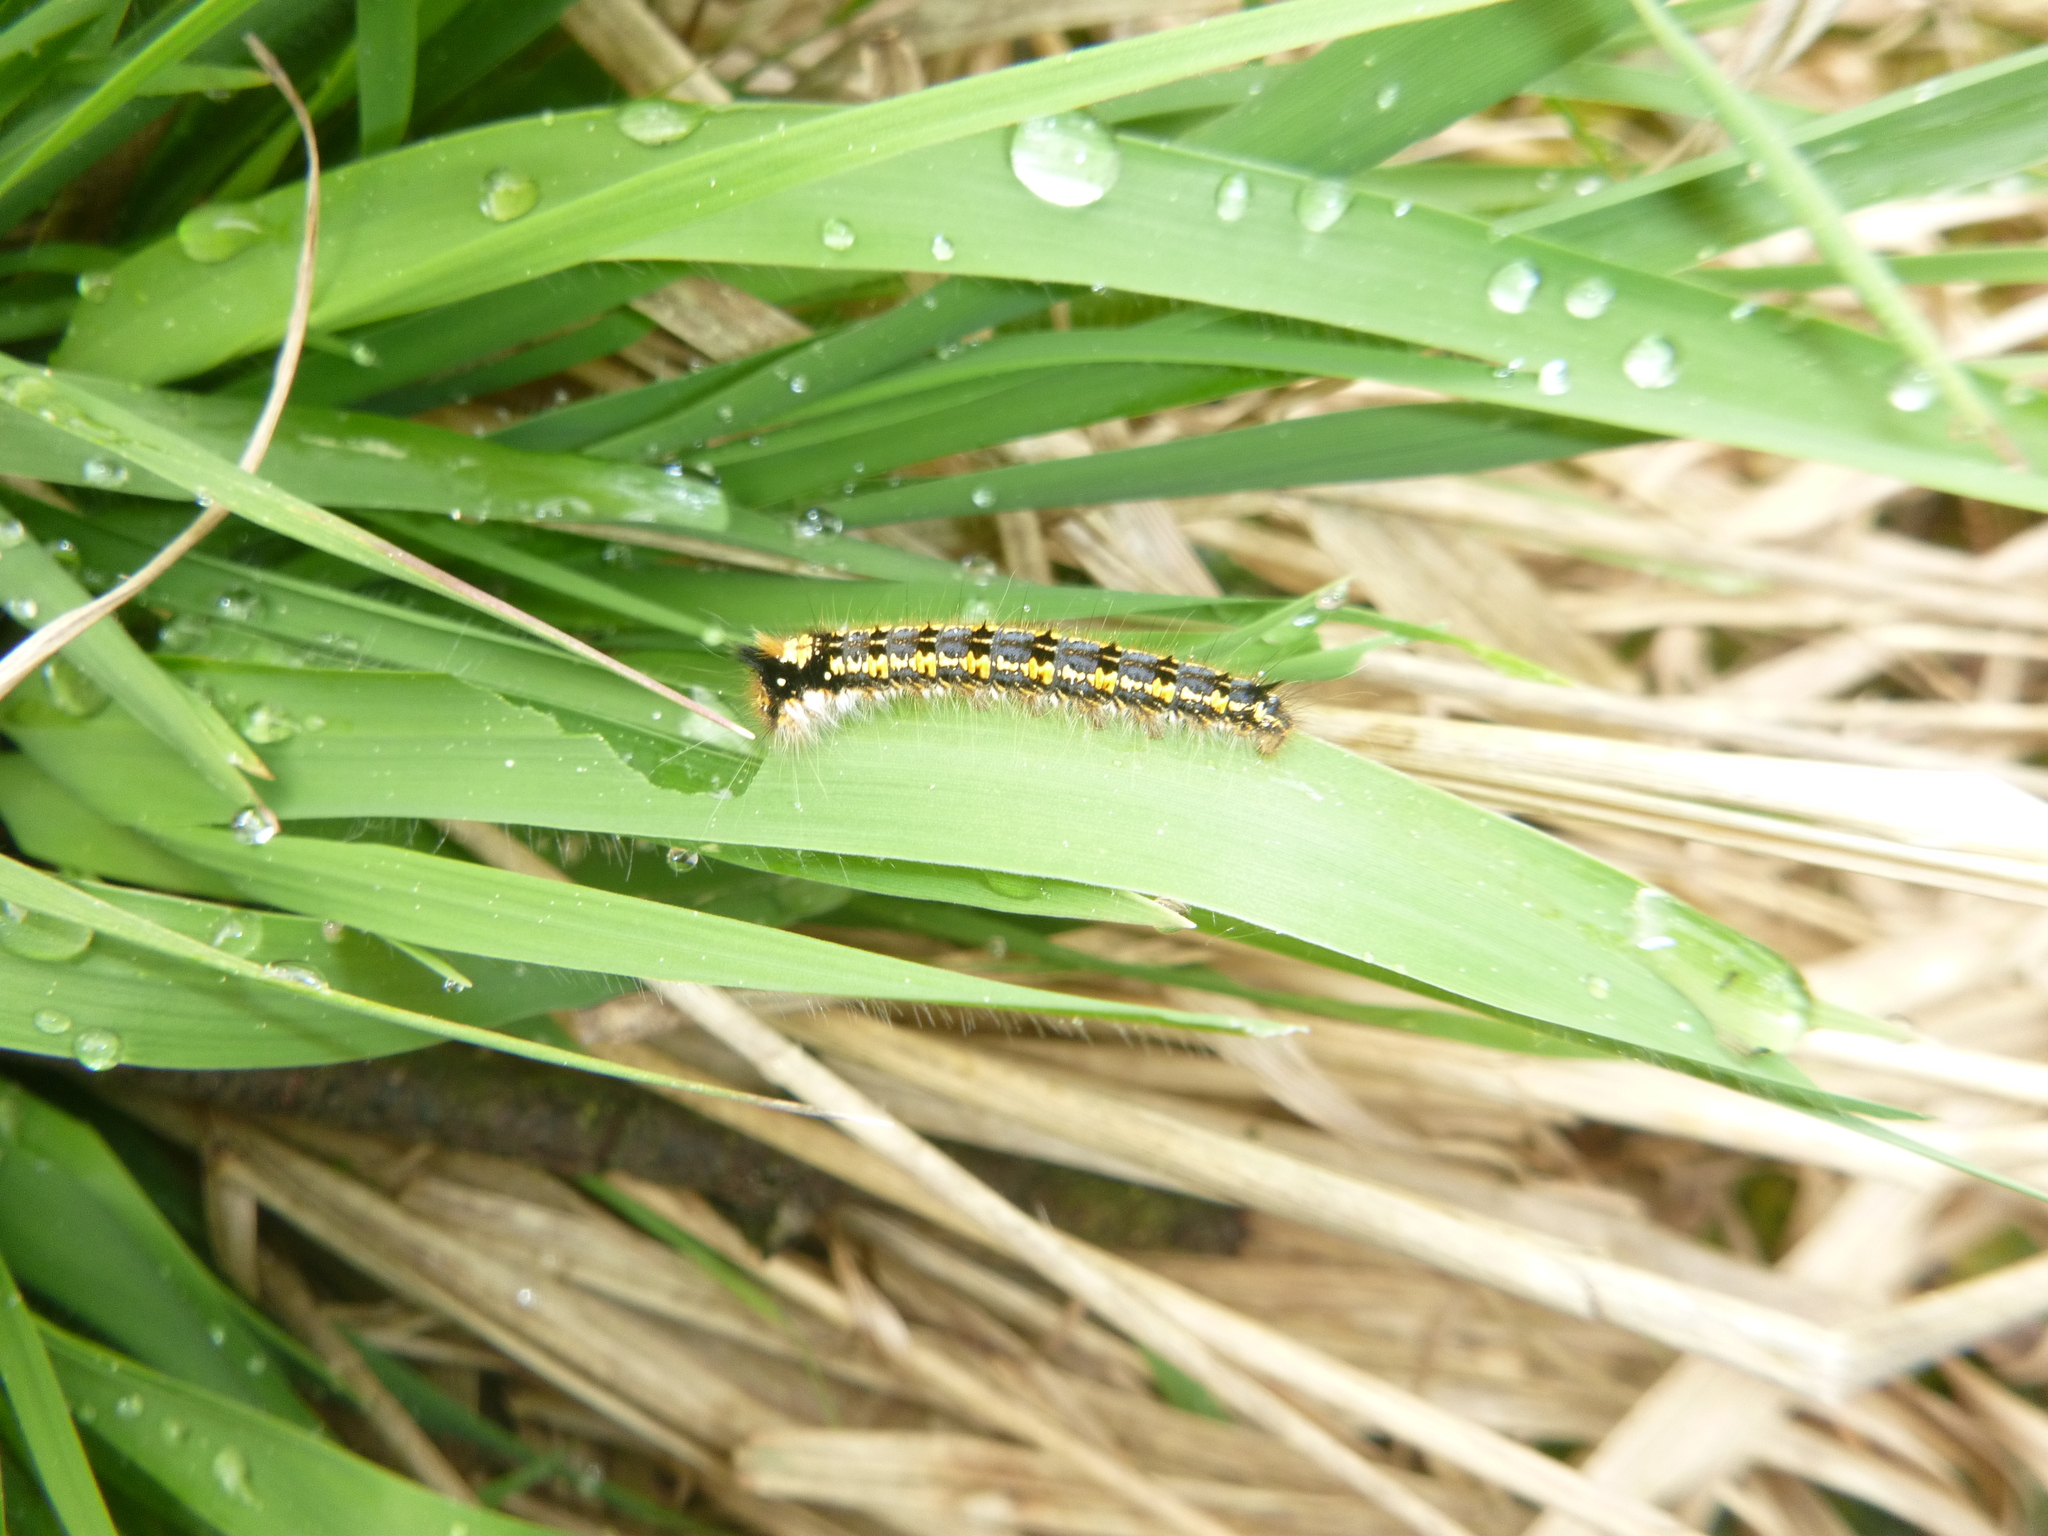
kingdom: Animalia
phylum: Arthropoda
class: Insecta
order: Lepidoptera
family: Lasiocampidae
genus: Euthrix
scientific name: Euthrix potatoria
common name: Drinker
